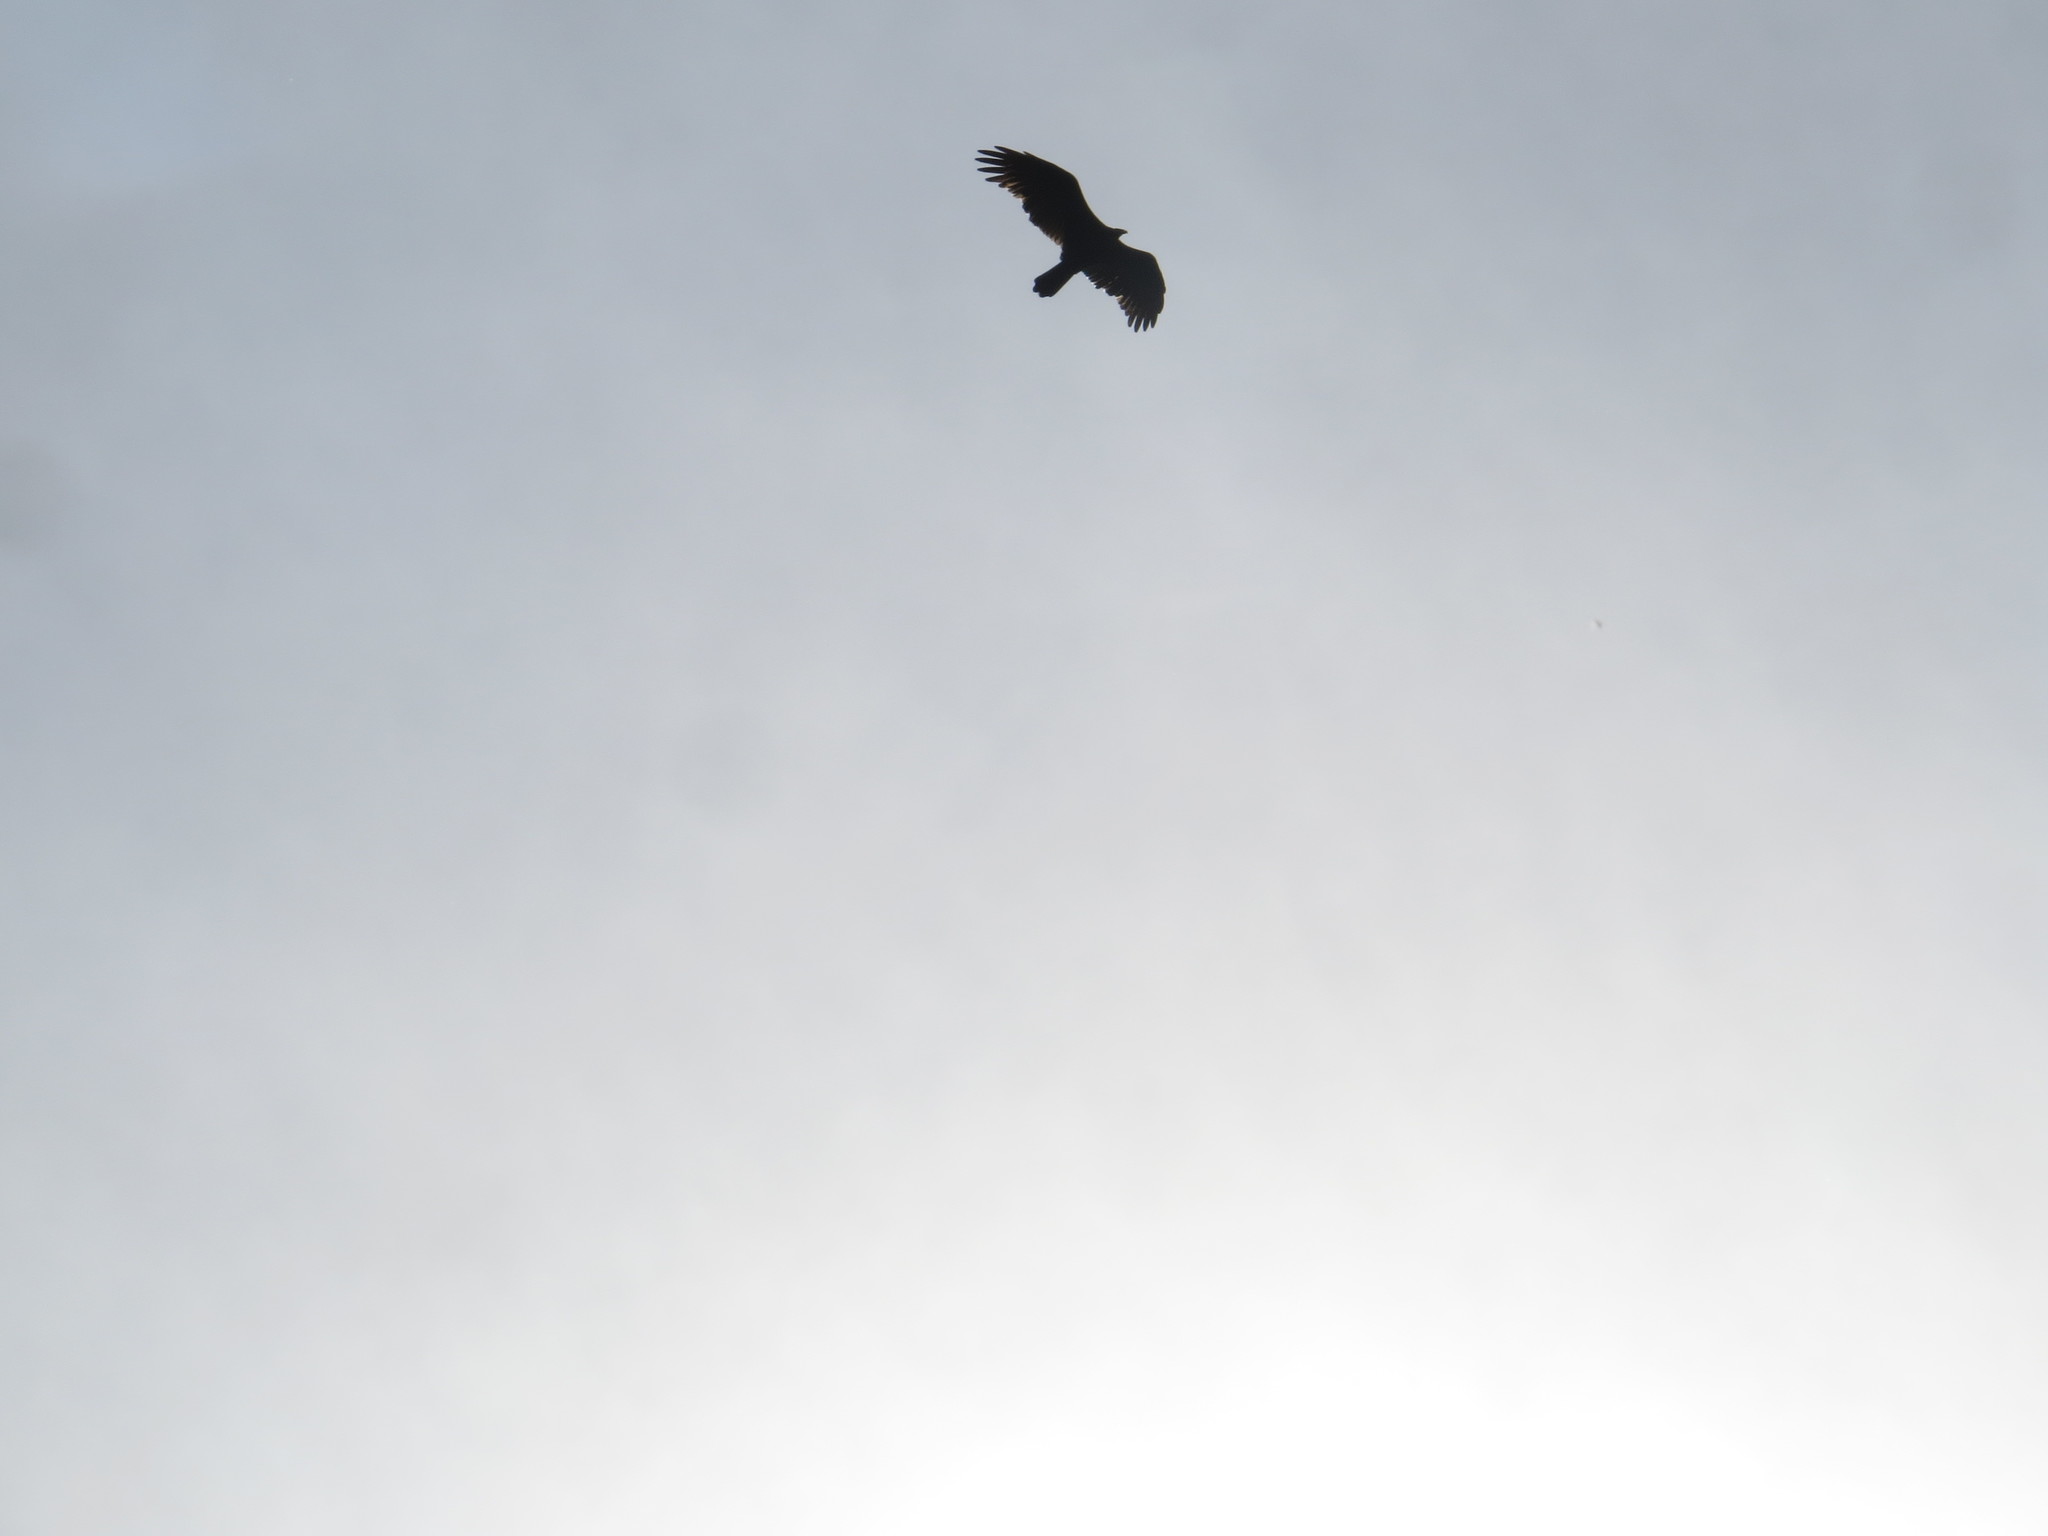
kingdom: Animalia
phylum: Chordata
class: Aves
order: Accipitriformes
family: Cathartidae
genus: Cathartes
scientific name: Cathartes aura
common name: Turkey vulture
